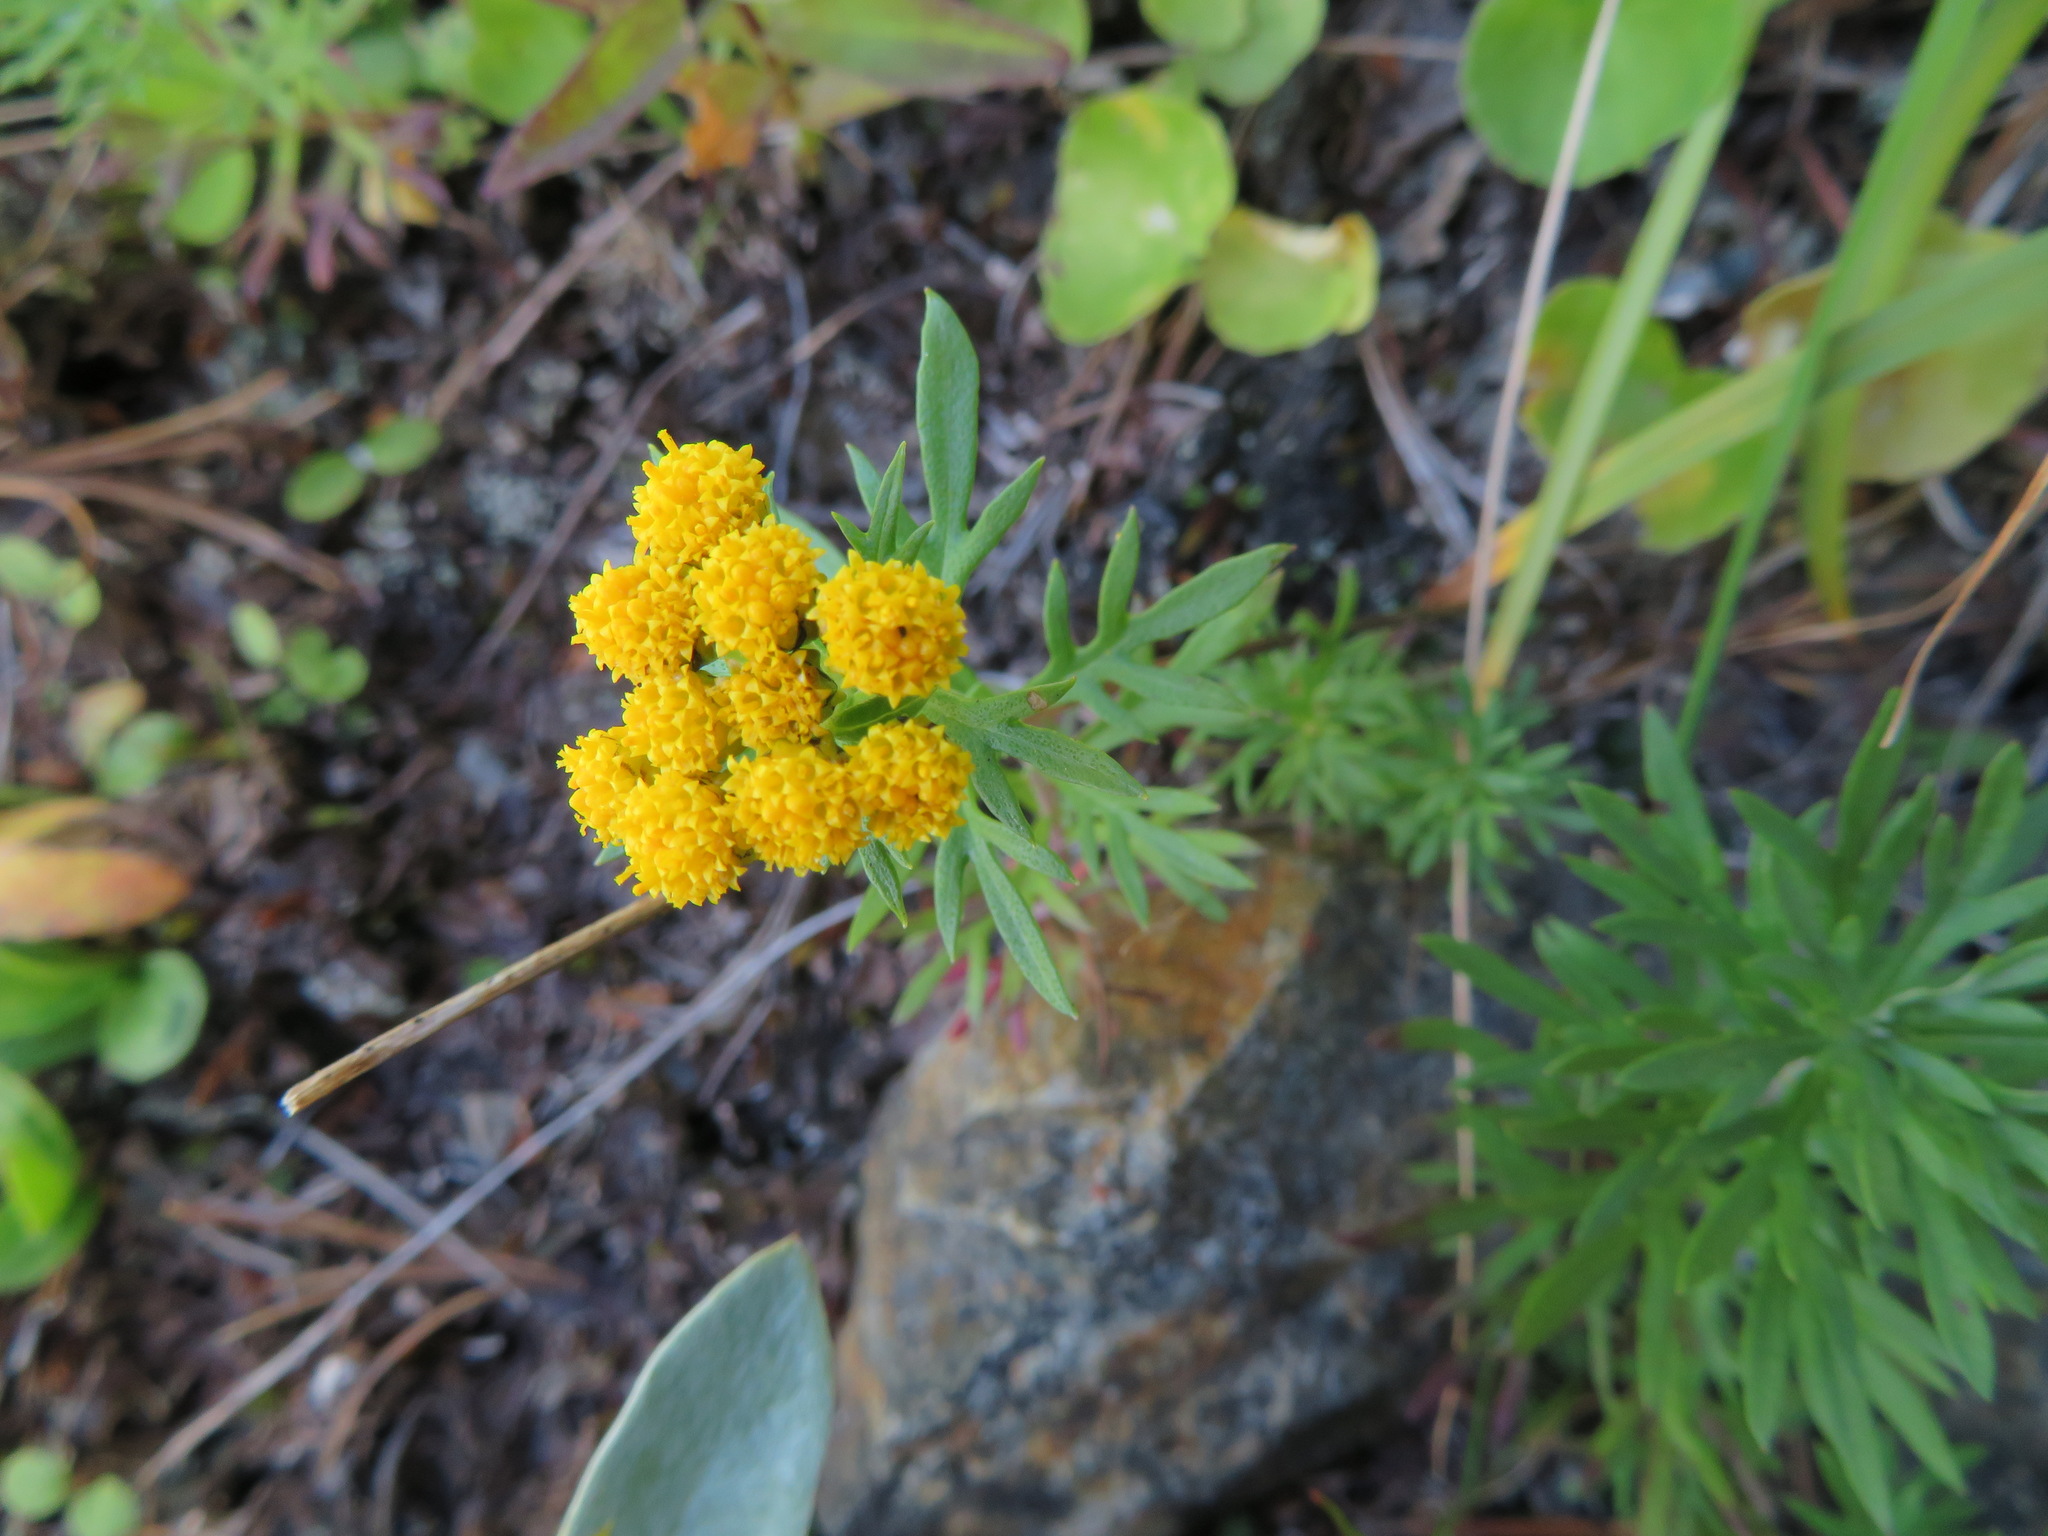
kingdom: Plantae
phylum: Tracheophyta
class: Magnoliopsida
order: Asterales
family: Asteraceae
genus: Ajania
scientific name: Ajania rupestris
